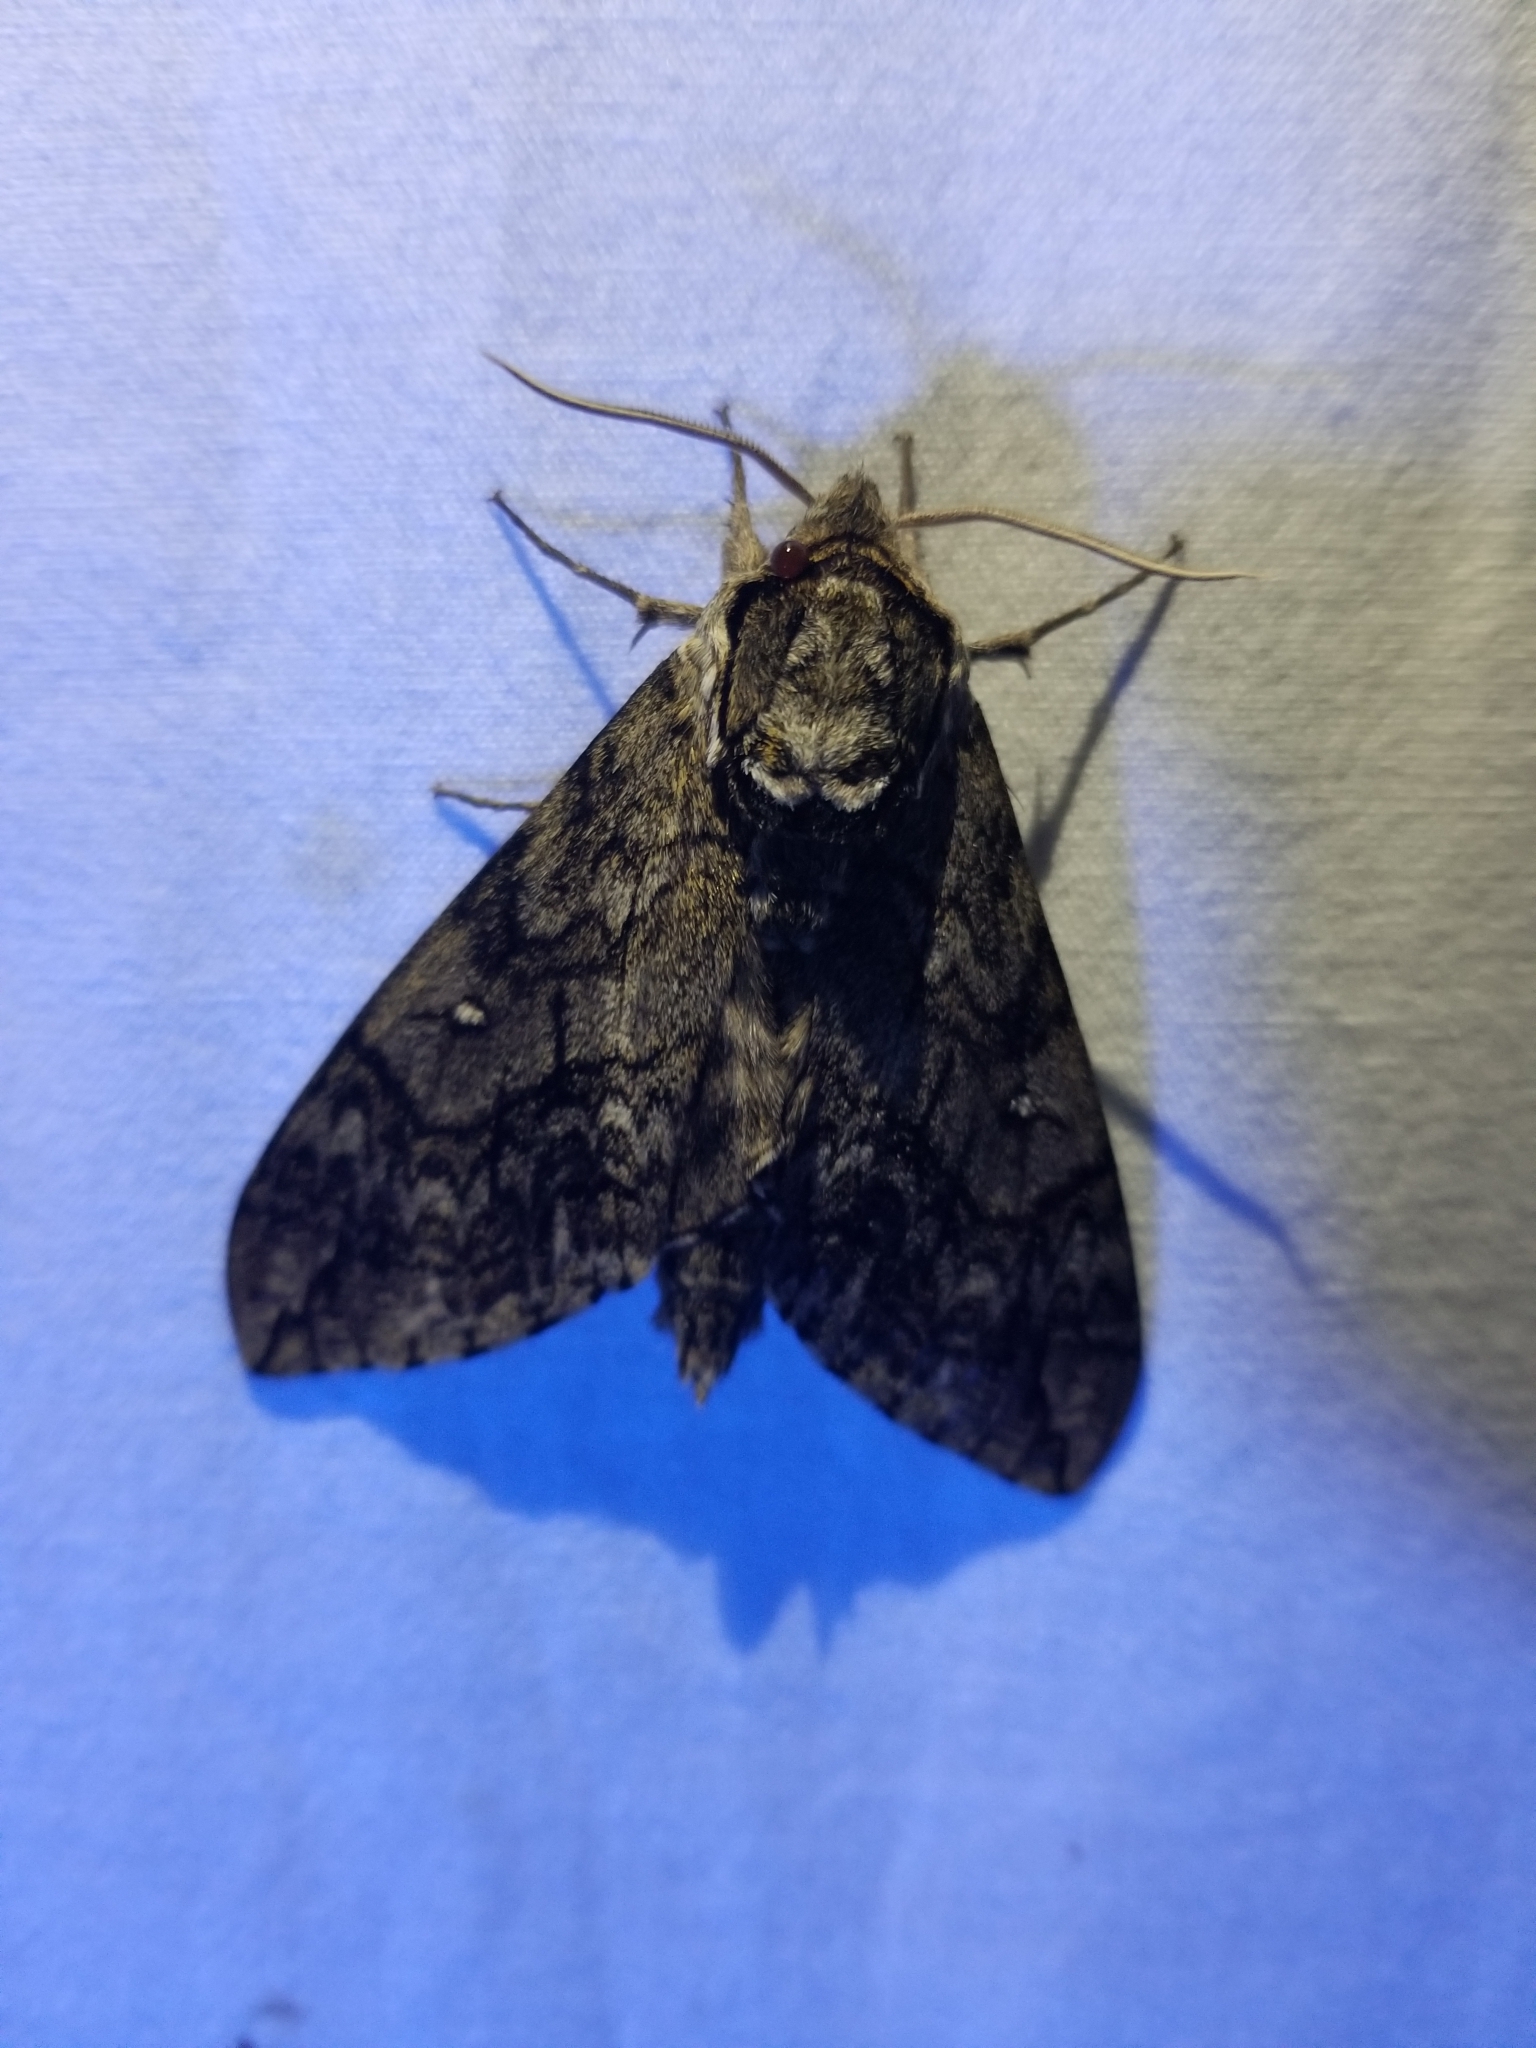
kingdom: Animalia
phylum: Arthropoda
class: Insecta
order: Lepidoptera
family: Sphingidae
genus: Ceratomia
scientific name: Ceratomia undulosa
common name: Waved sphinx
